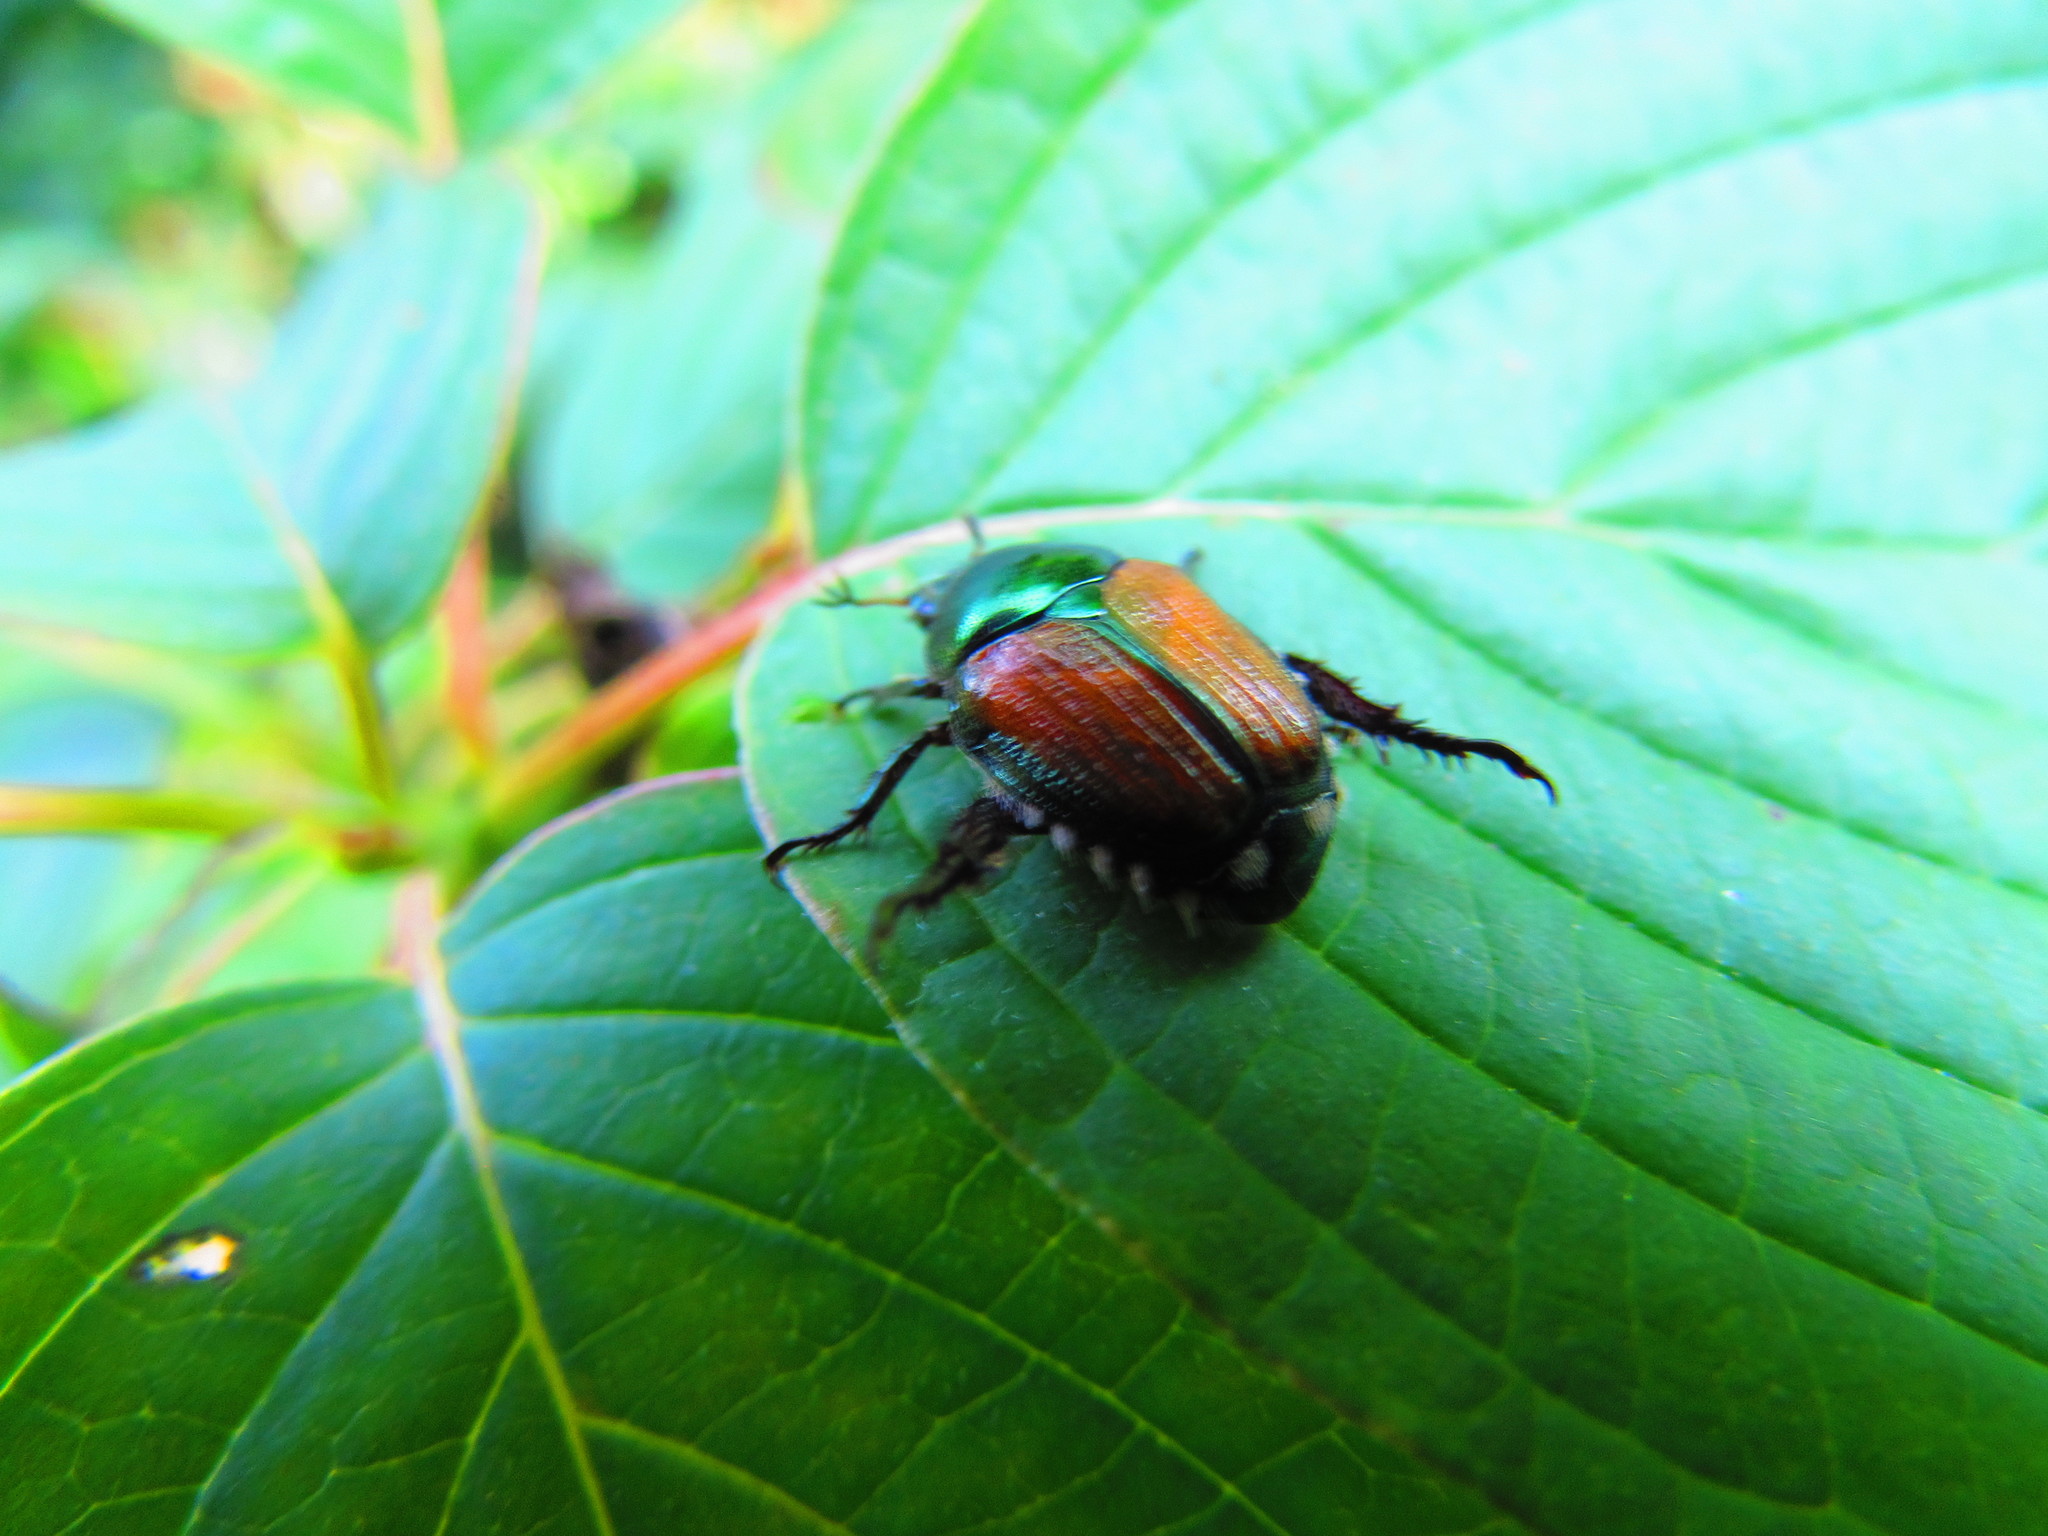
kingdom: Animalia
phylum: Arthropoda
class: Insecta
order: Coleoptera
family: Scarabaeidae
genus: Popillia
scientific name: Popillia japonica
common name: Japanese beetle
